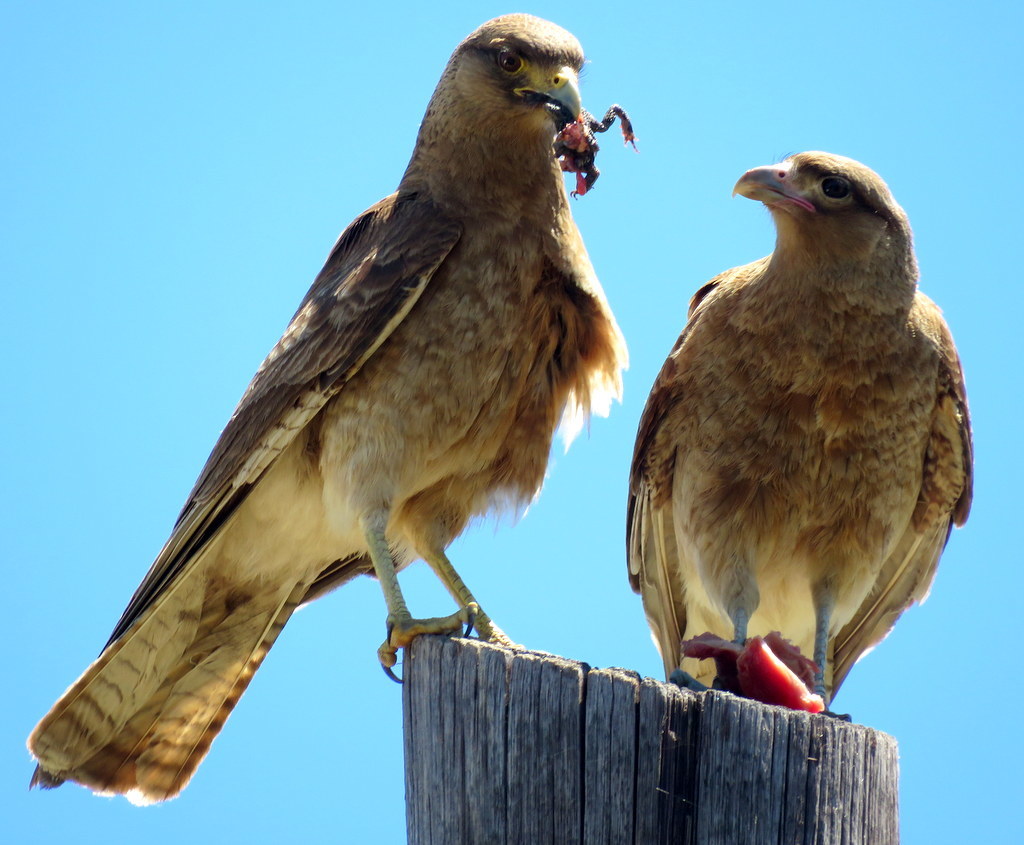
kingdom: Animalia
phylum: Chordata
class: Aves
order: Falconiformes
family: Falconidae
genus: Daptrius
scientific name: Daptrius
